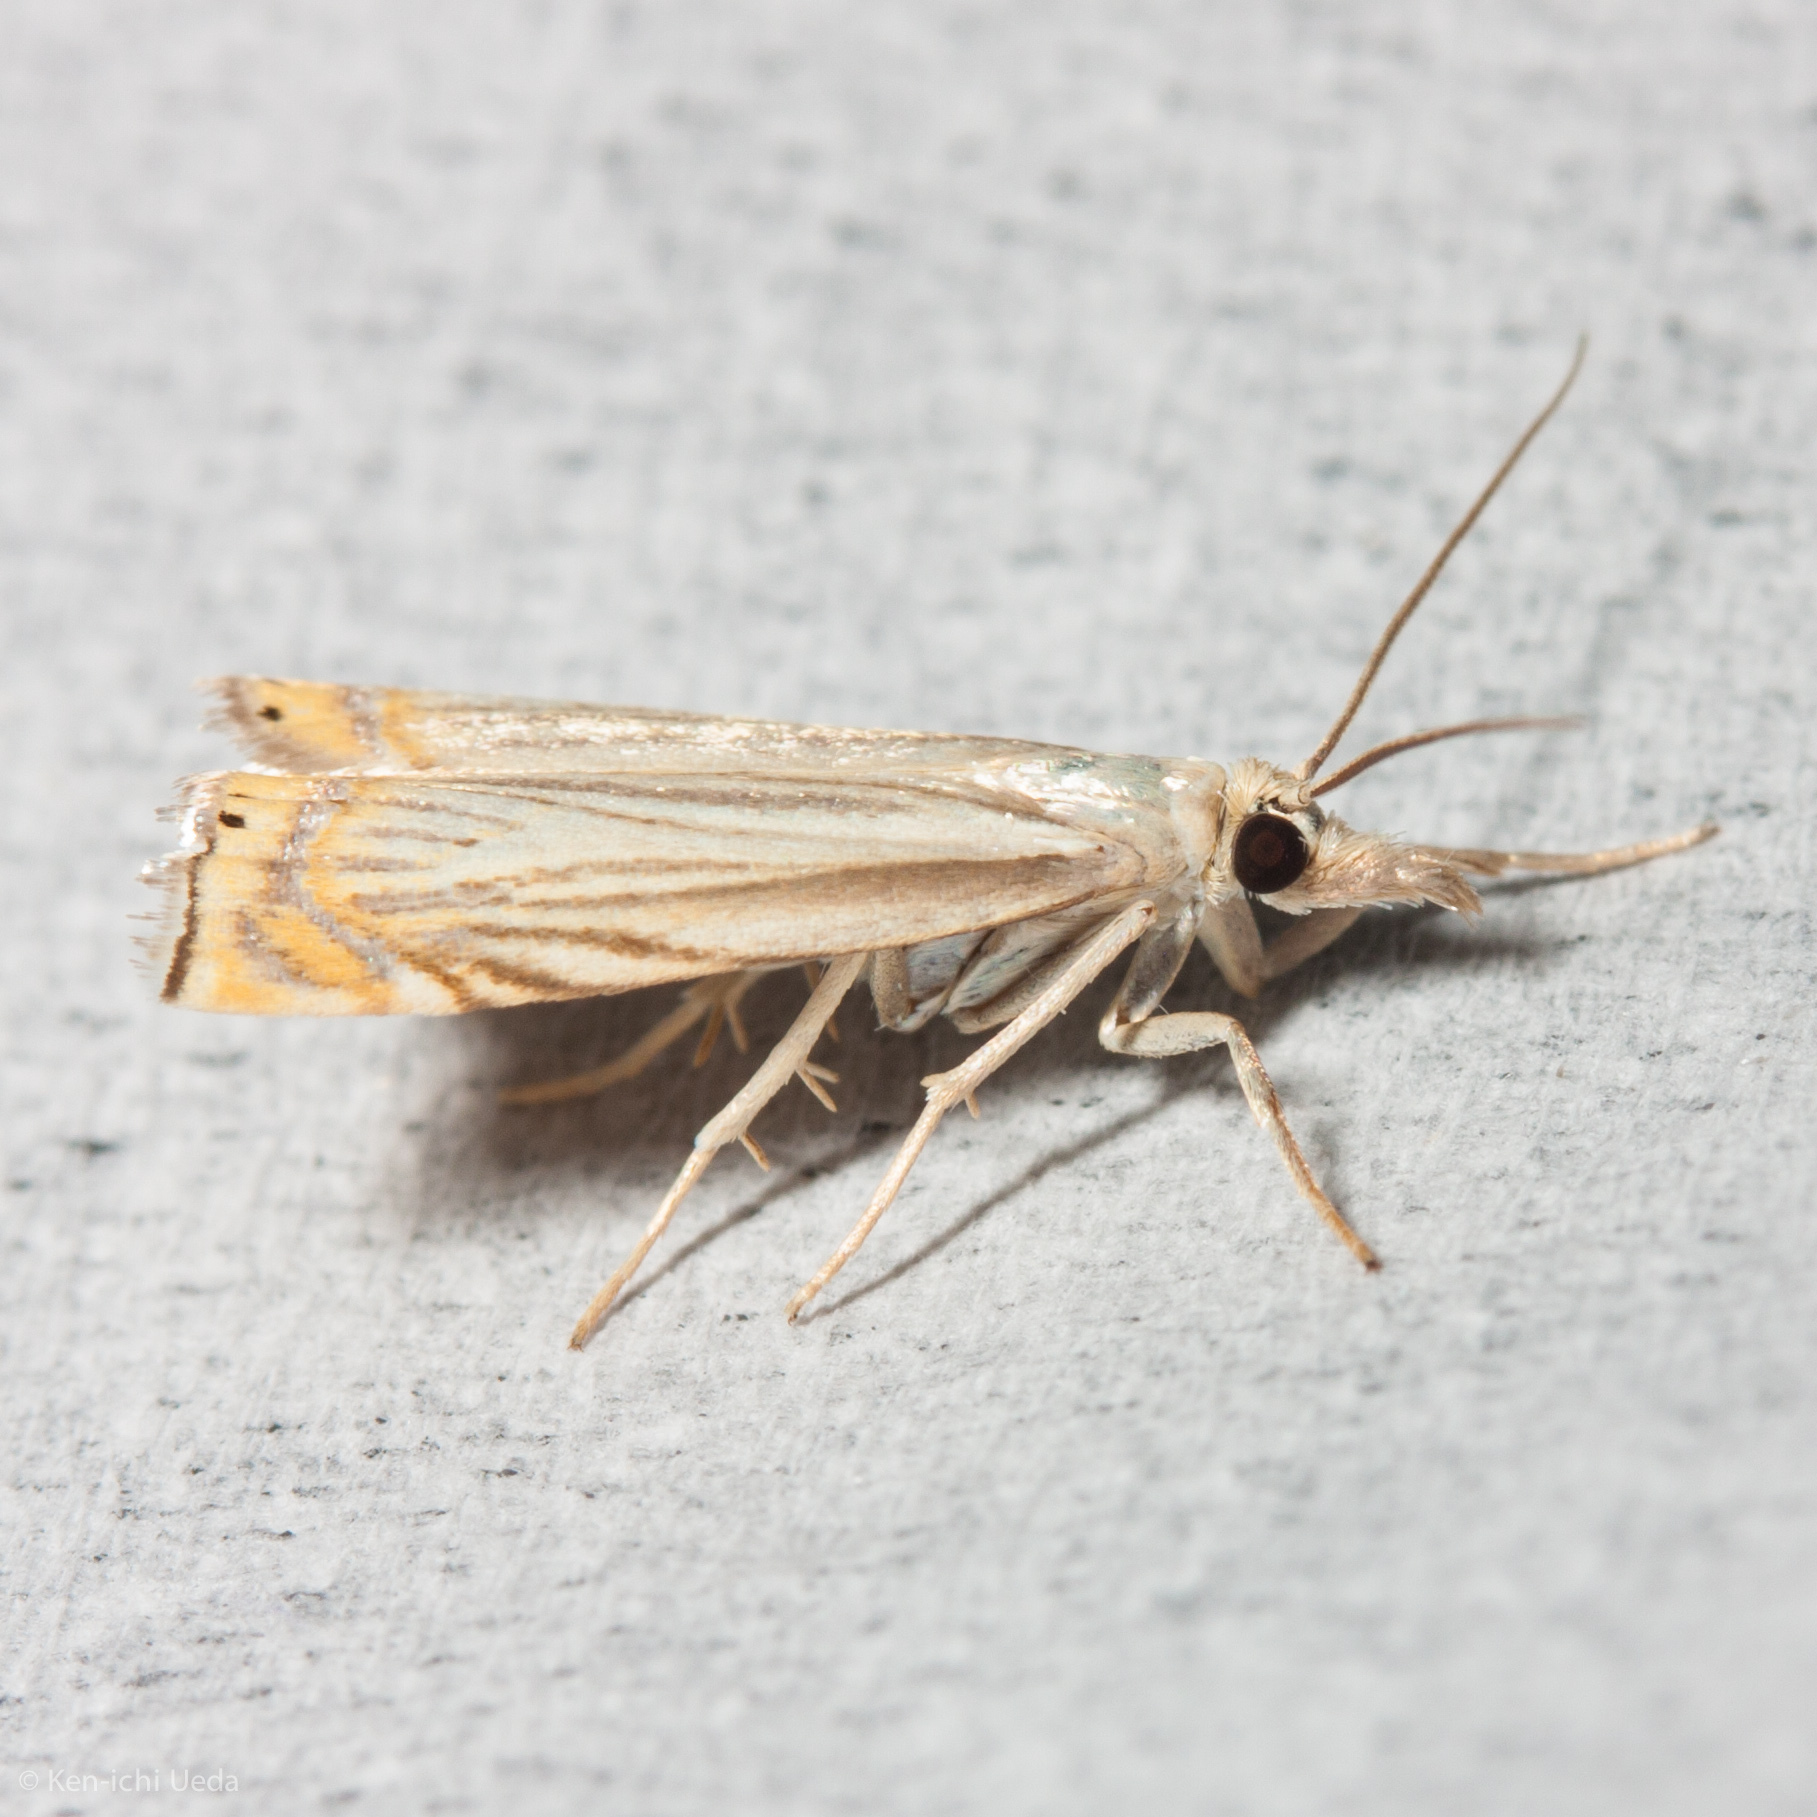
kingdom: Animalia
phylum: Arthropoda
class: Insecta
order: Lepidoptera
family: Crambidae
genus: Chrysoteuchia
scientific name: Chrysoteuchia topiarius
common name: Topiary grass-veneer
